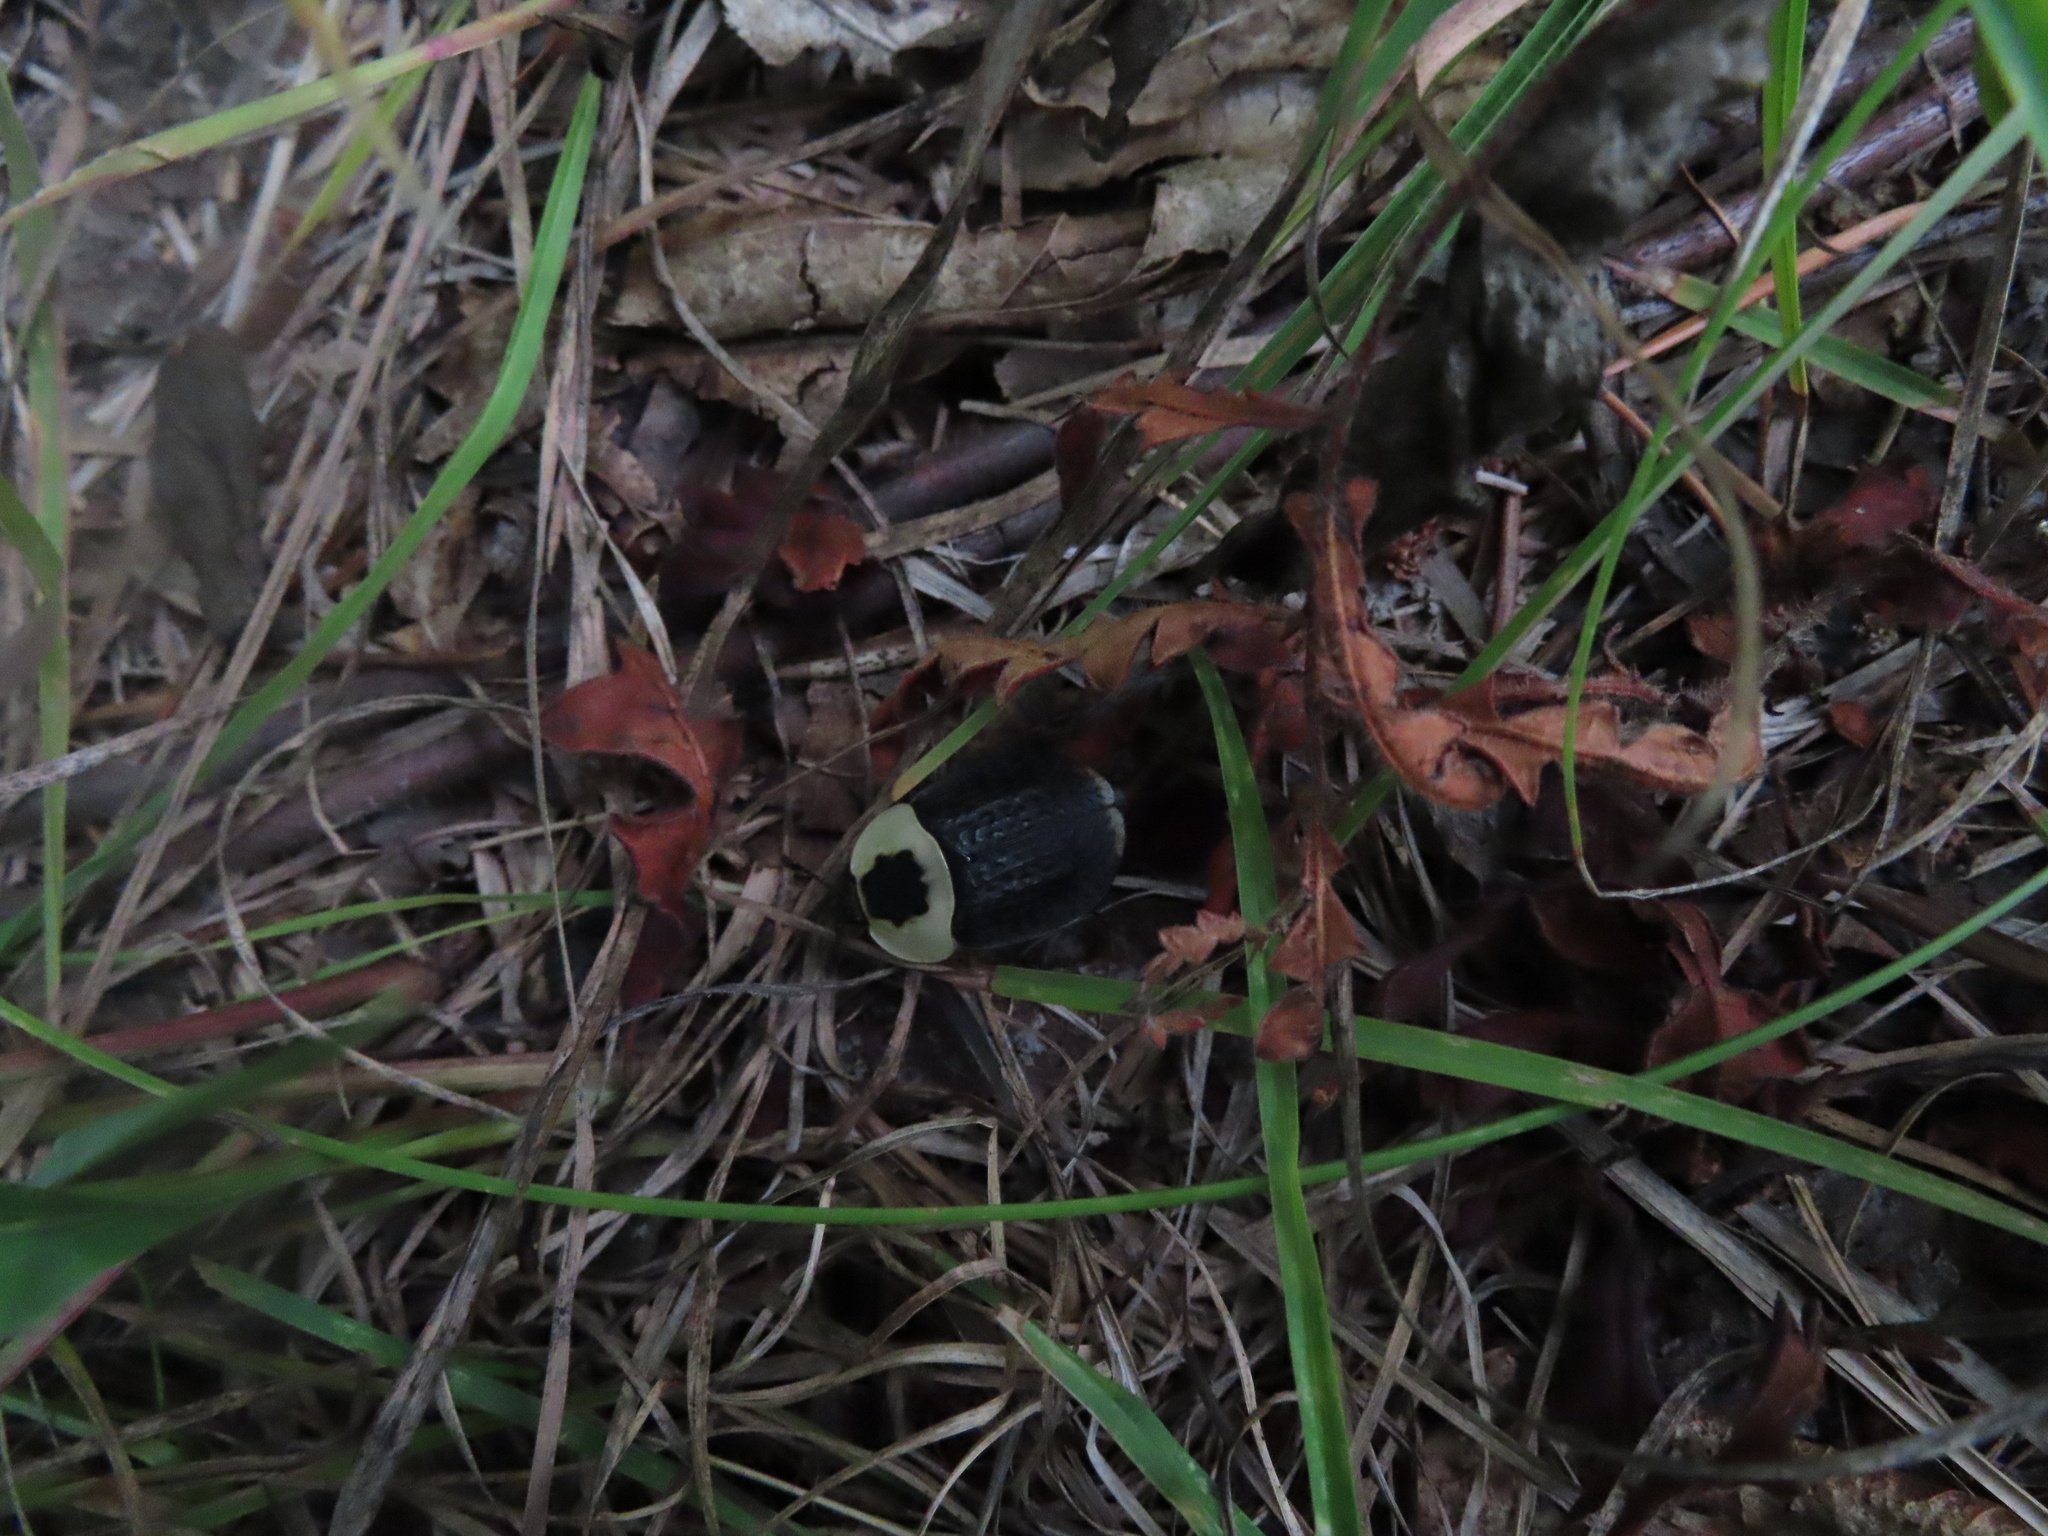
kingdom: Animalia
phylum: Arthropoda
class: Insecta
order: Coleoptera
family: Staphylinidae
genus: Necrophila
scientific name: Necrophila americana
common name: American carrion beetle
